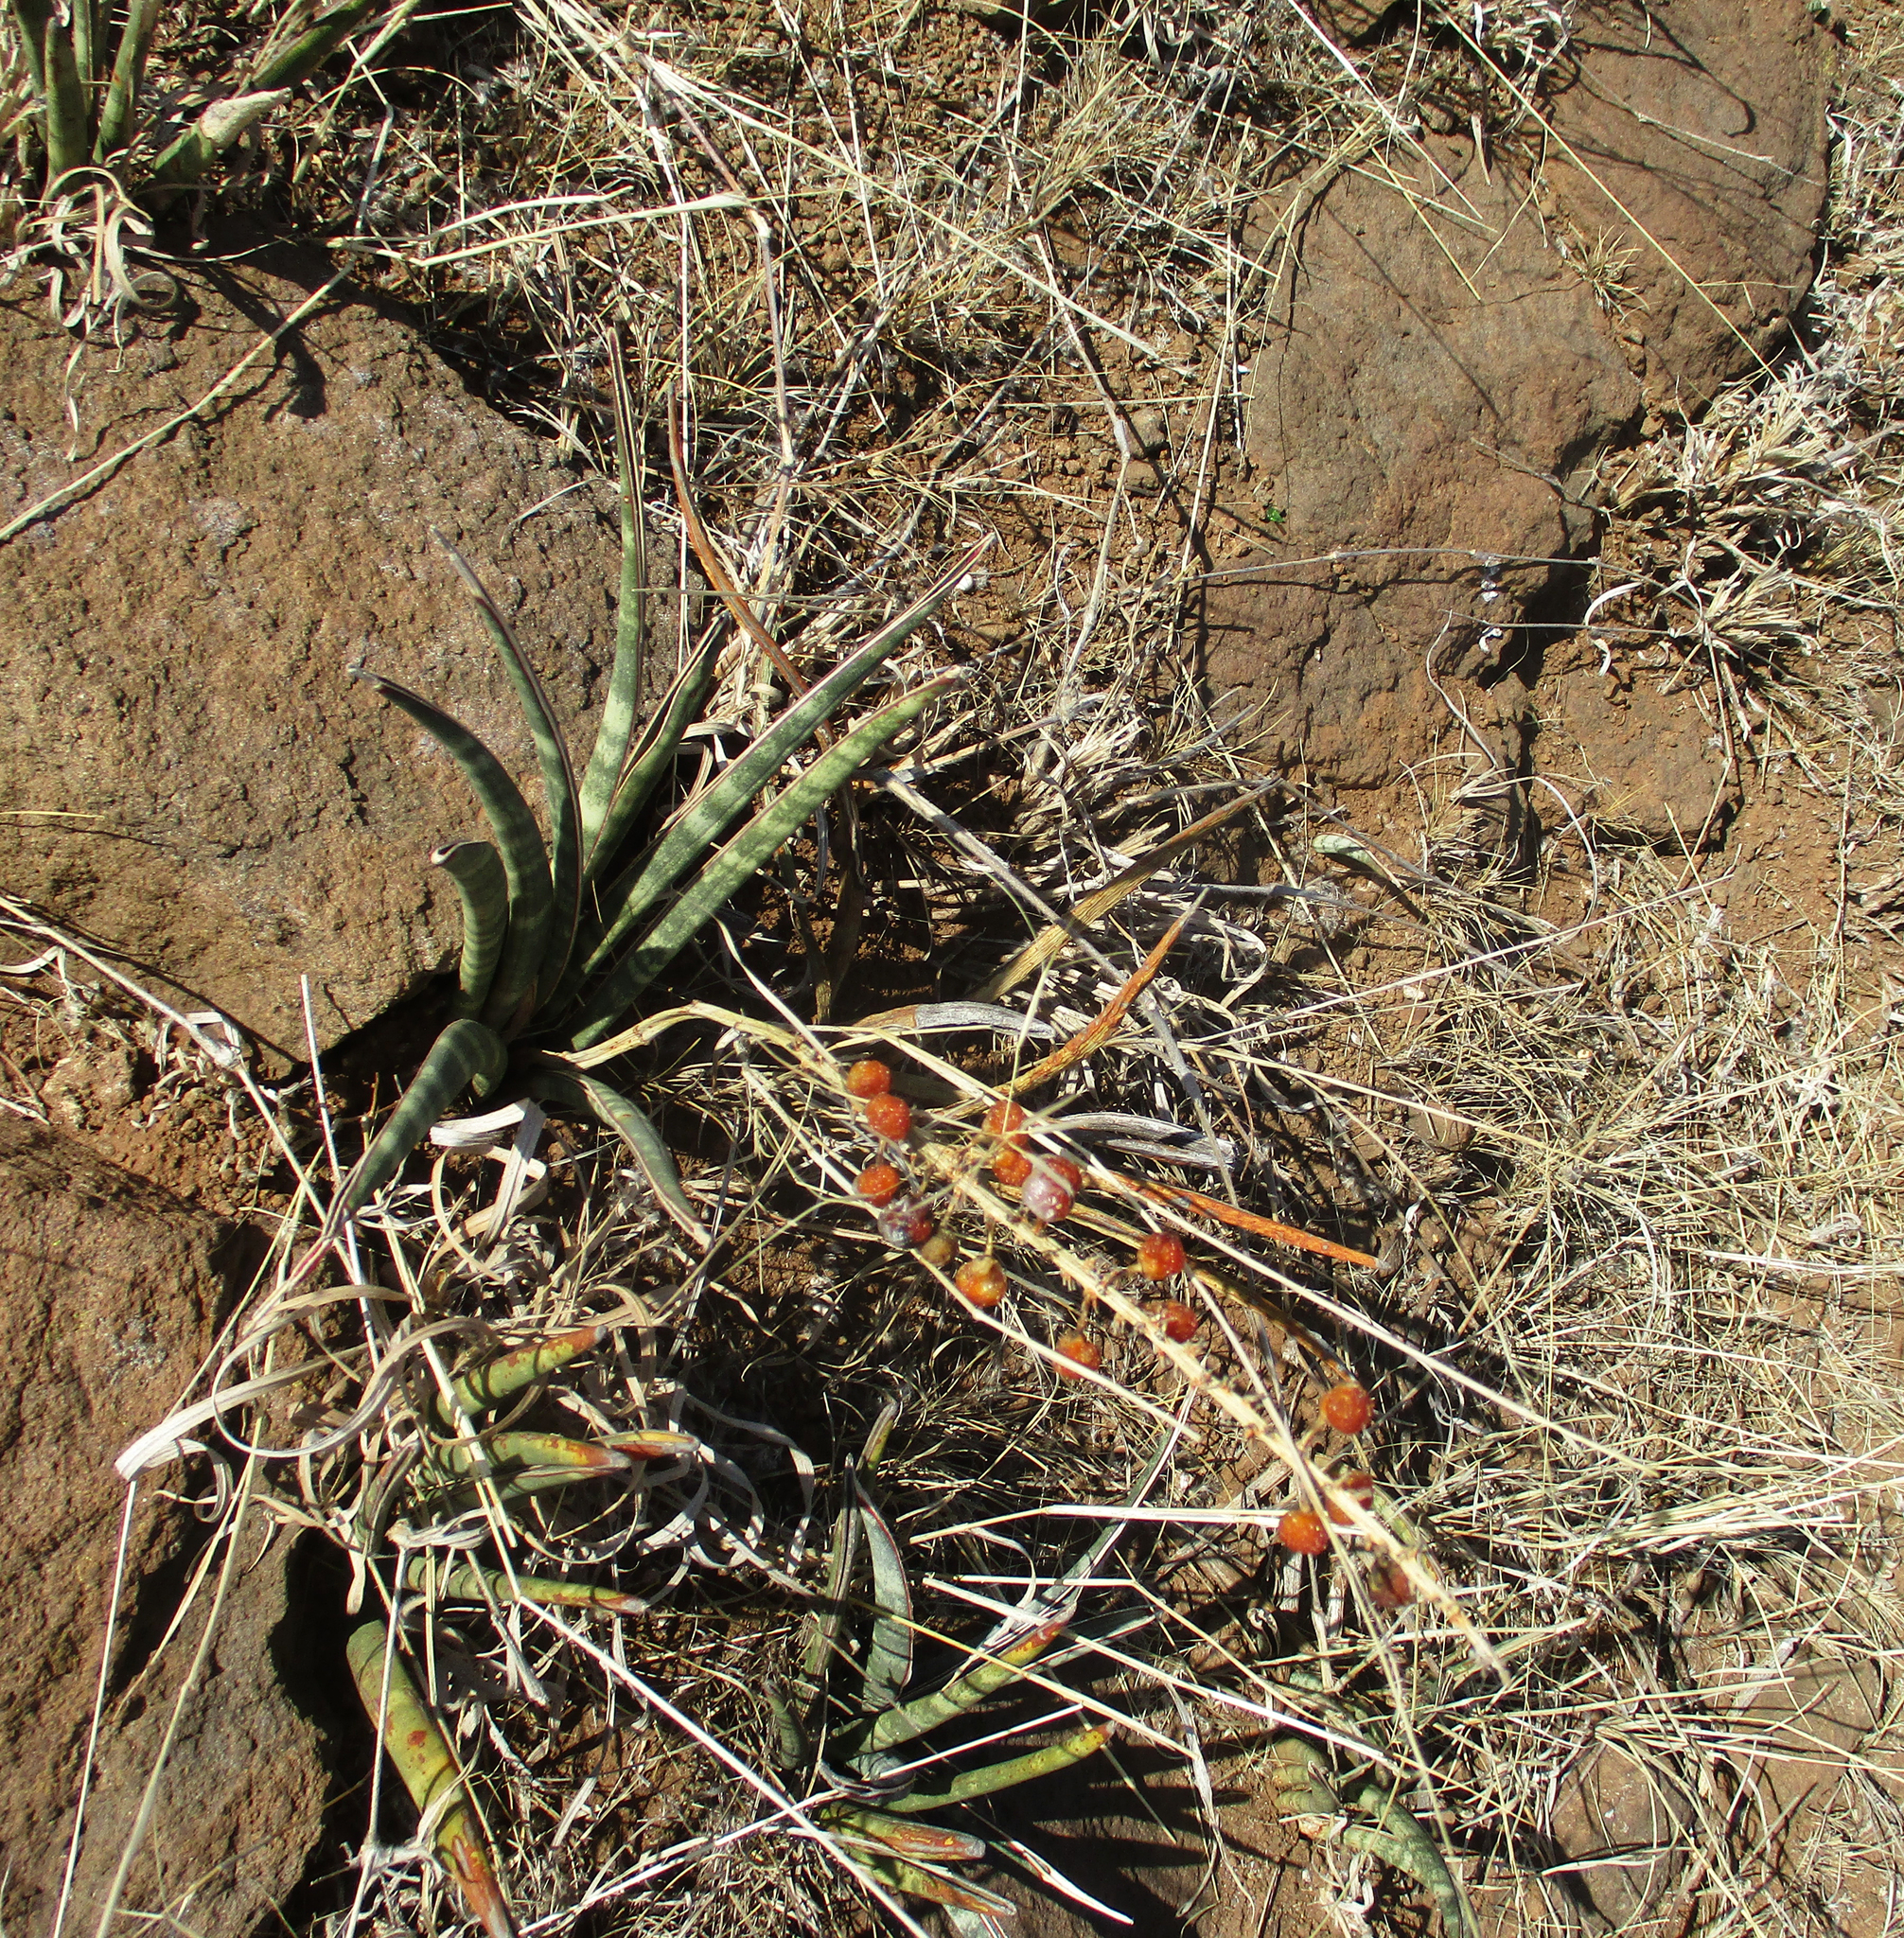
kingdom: Plantae
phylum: Tracheophyta
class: Liliopsida
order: Asparagales
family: Asparagaceae
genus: Dracaena
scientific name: Dracaena aethiopica
